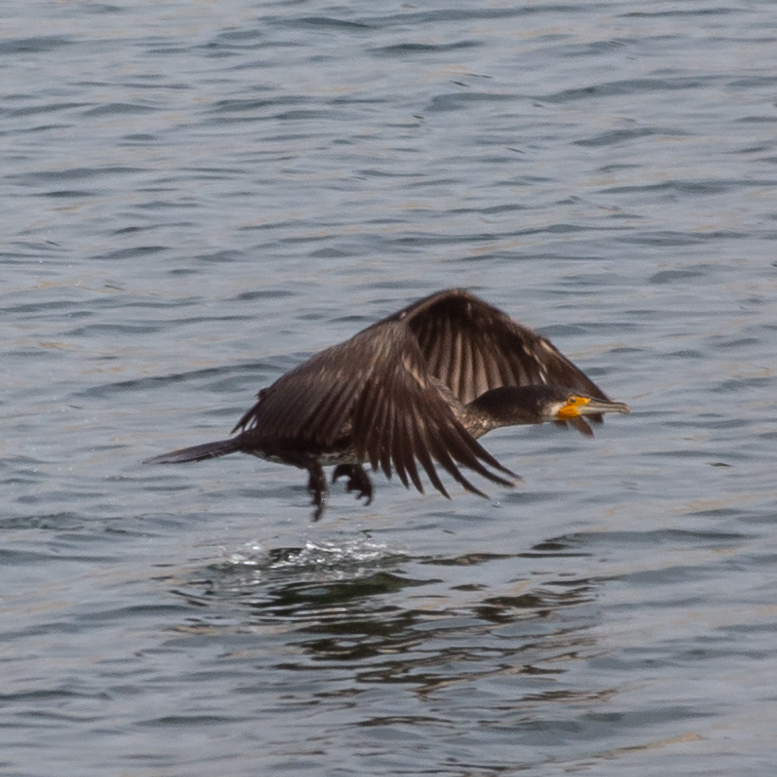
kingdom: Animalia
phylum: Chordata
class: Aves
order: Suliformes
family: Phalacrocoracidae
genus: Phalacrocorax
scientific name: Phalacrocorax carbo
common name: Great cormorant
